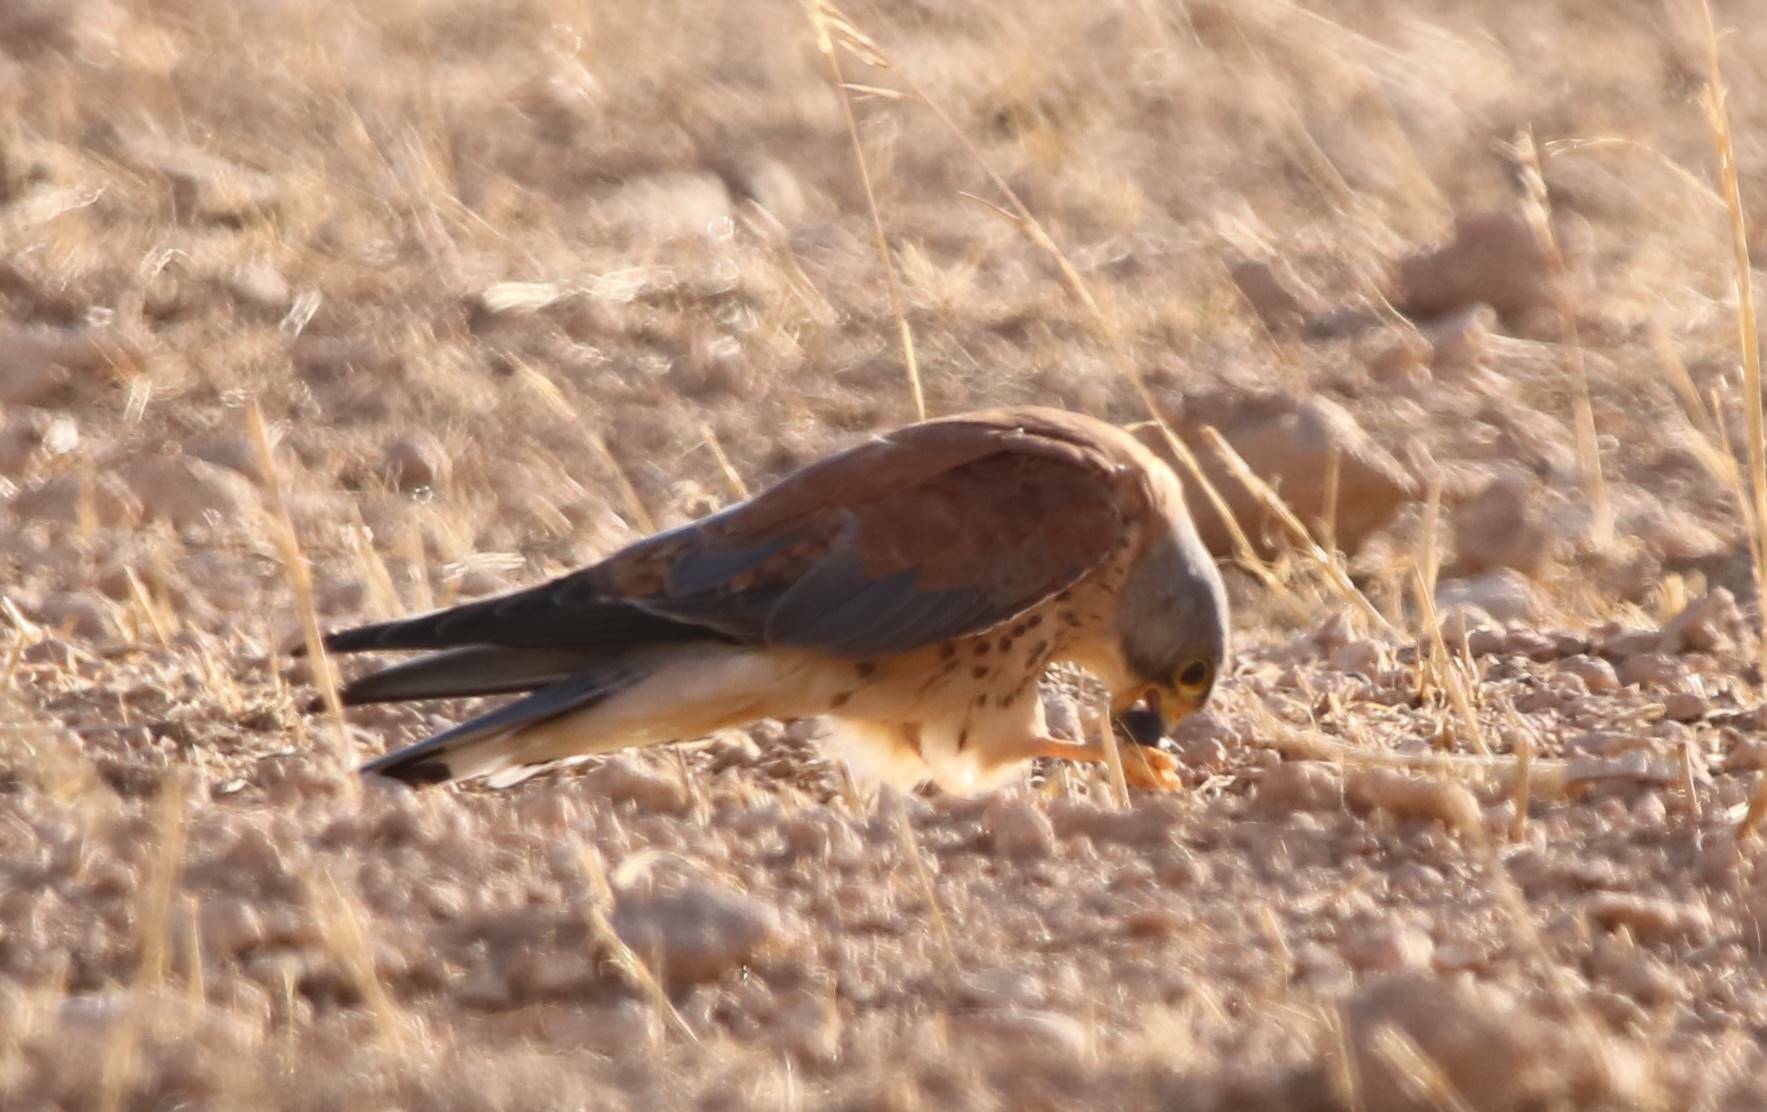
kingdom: Animalia
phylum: Chordata
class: Aves
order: Falconiformes
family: Falconidae
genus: Falco
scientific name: Falco naumanni
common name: Lesser kestrel
